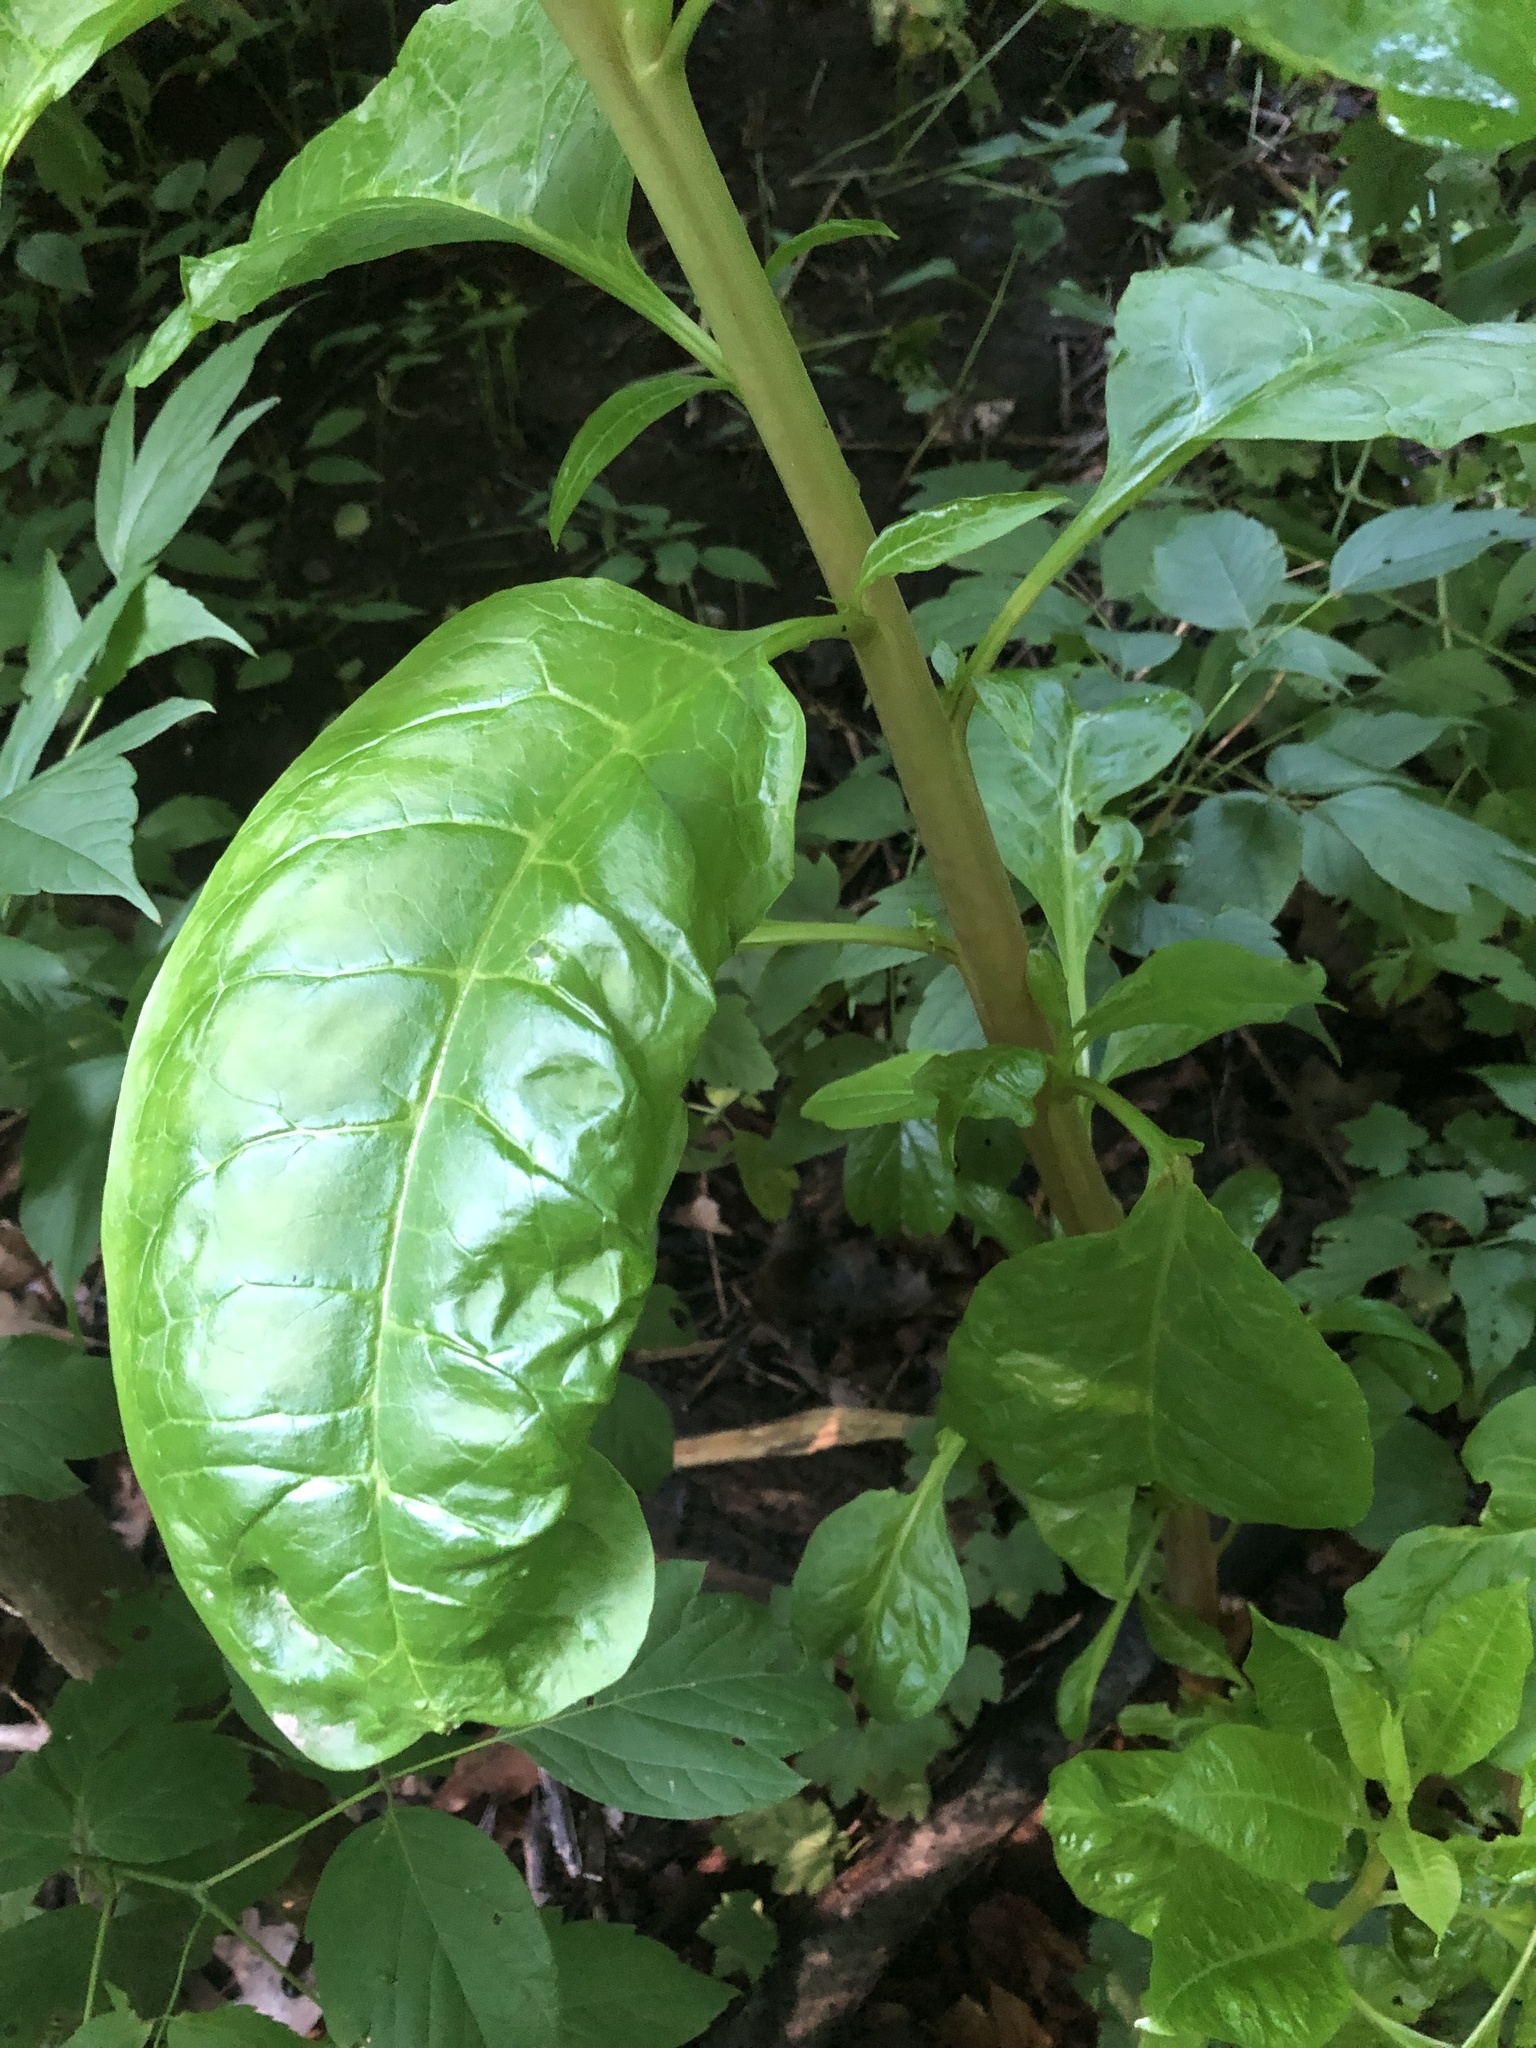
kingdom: Plantae
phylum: Tracheophyta
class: Magnoliopsida
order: Caryophyllales
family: Phytolaccaceae
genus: Phytolacca
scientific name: Phytolacca americana
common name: American pokeweed
